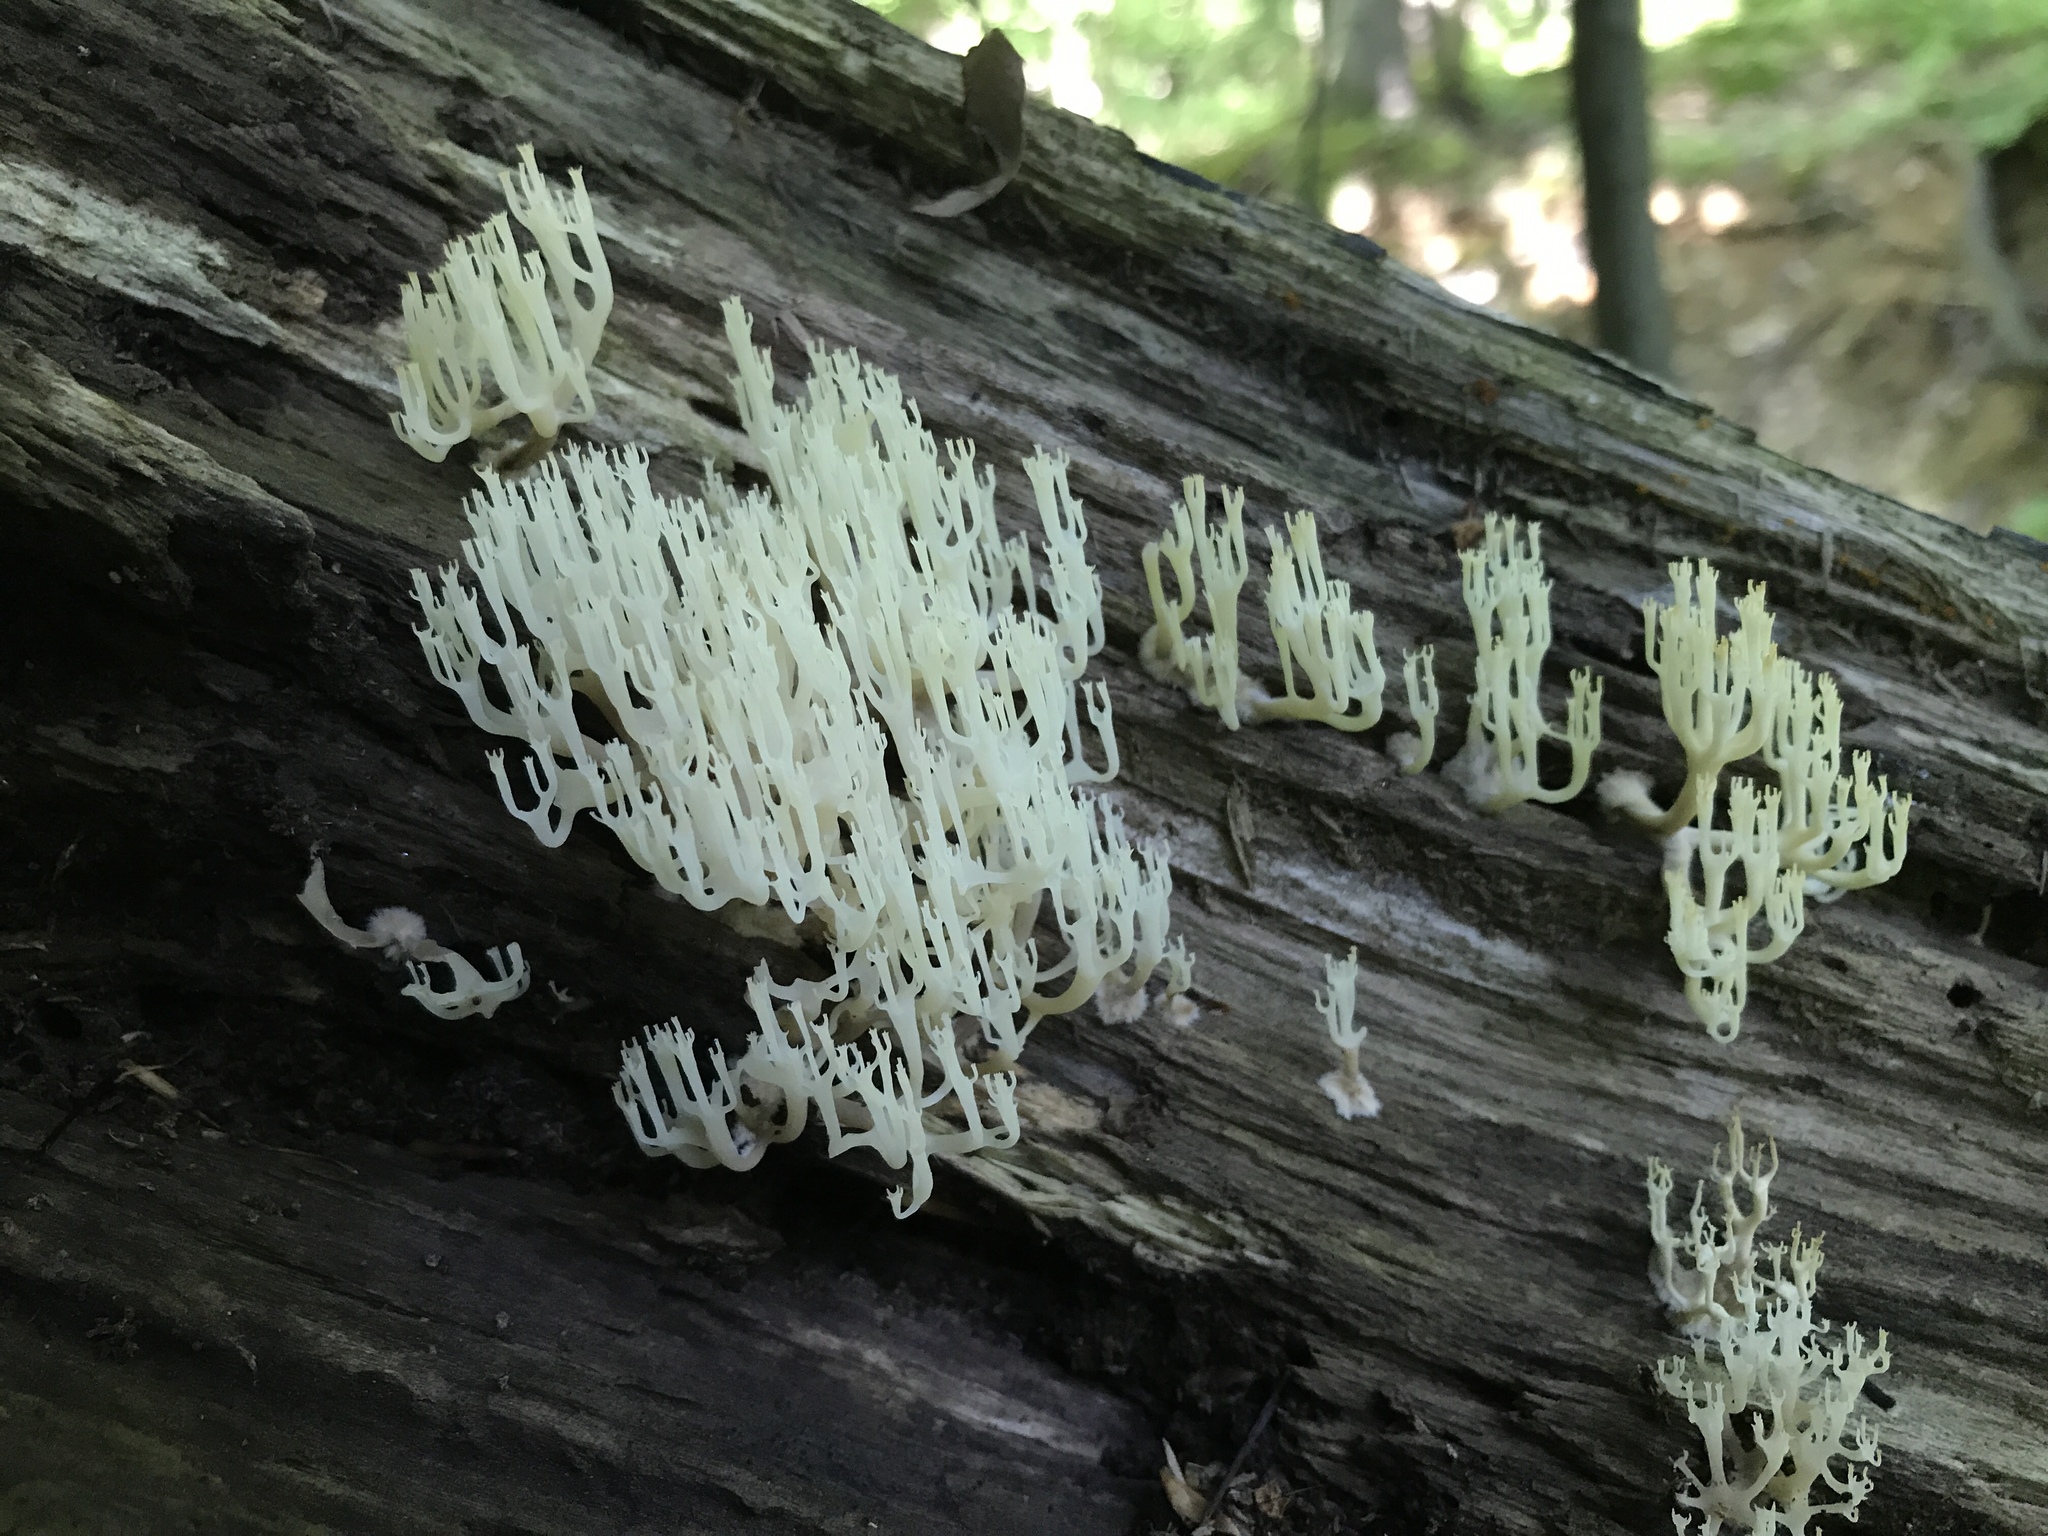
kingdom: Fungi
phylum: Basidiomycota
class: Agaricomycetes
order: Russulales
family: Auriscalpiaceae
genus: Artomyces
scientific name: Artomyces pyxidatus
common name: Crown-tipped coral fungus
